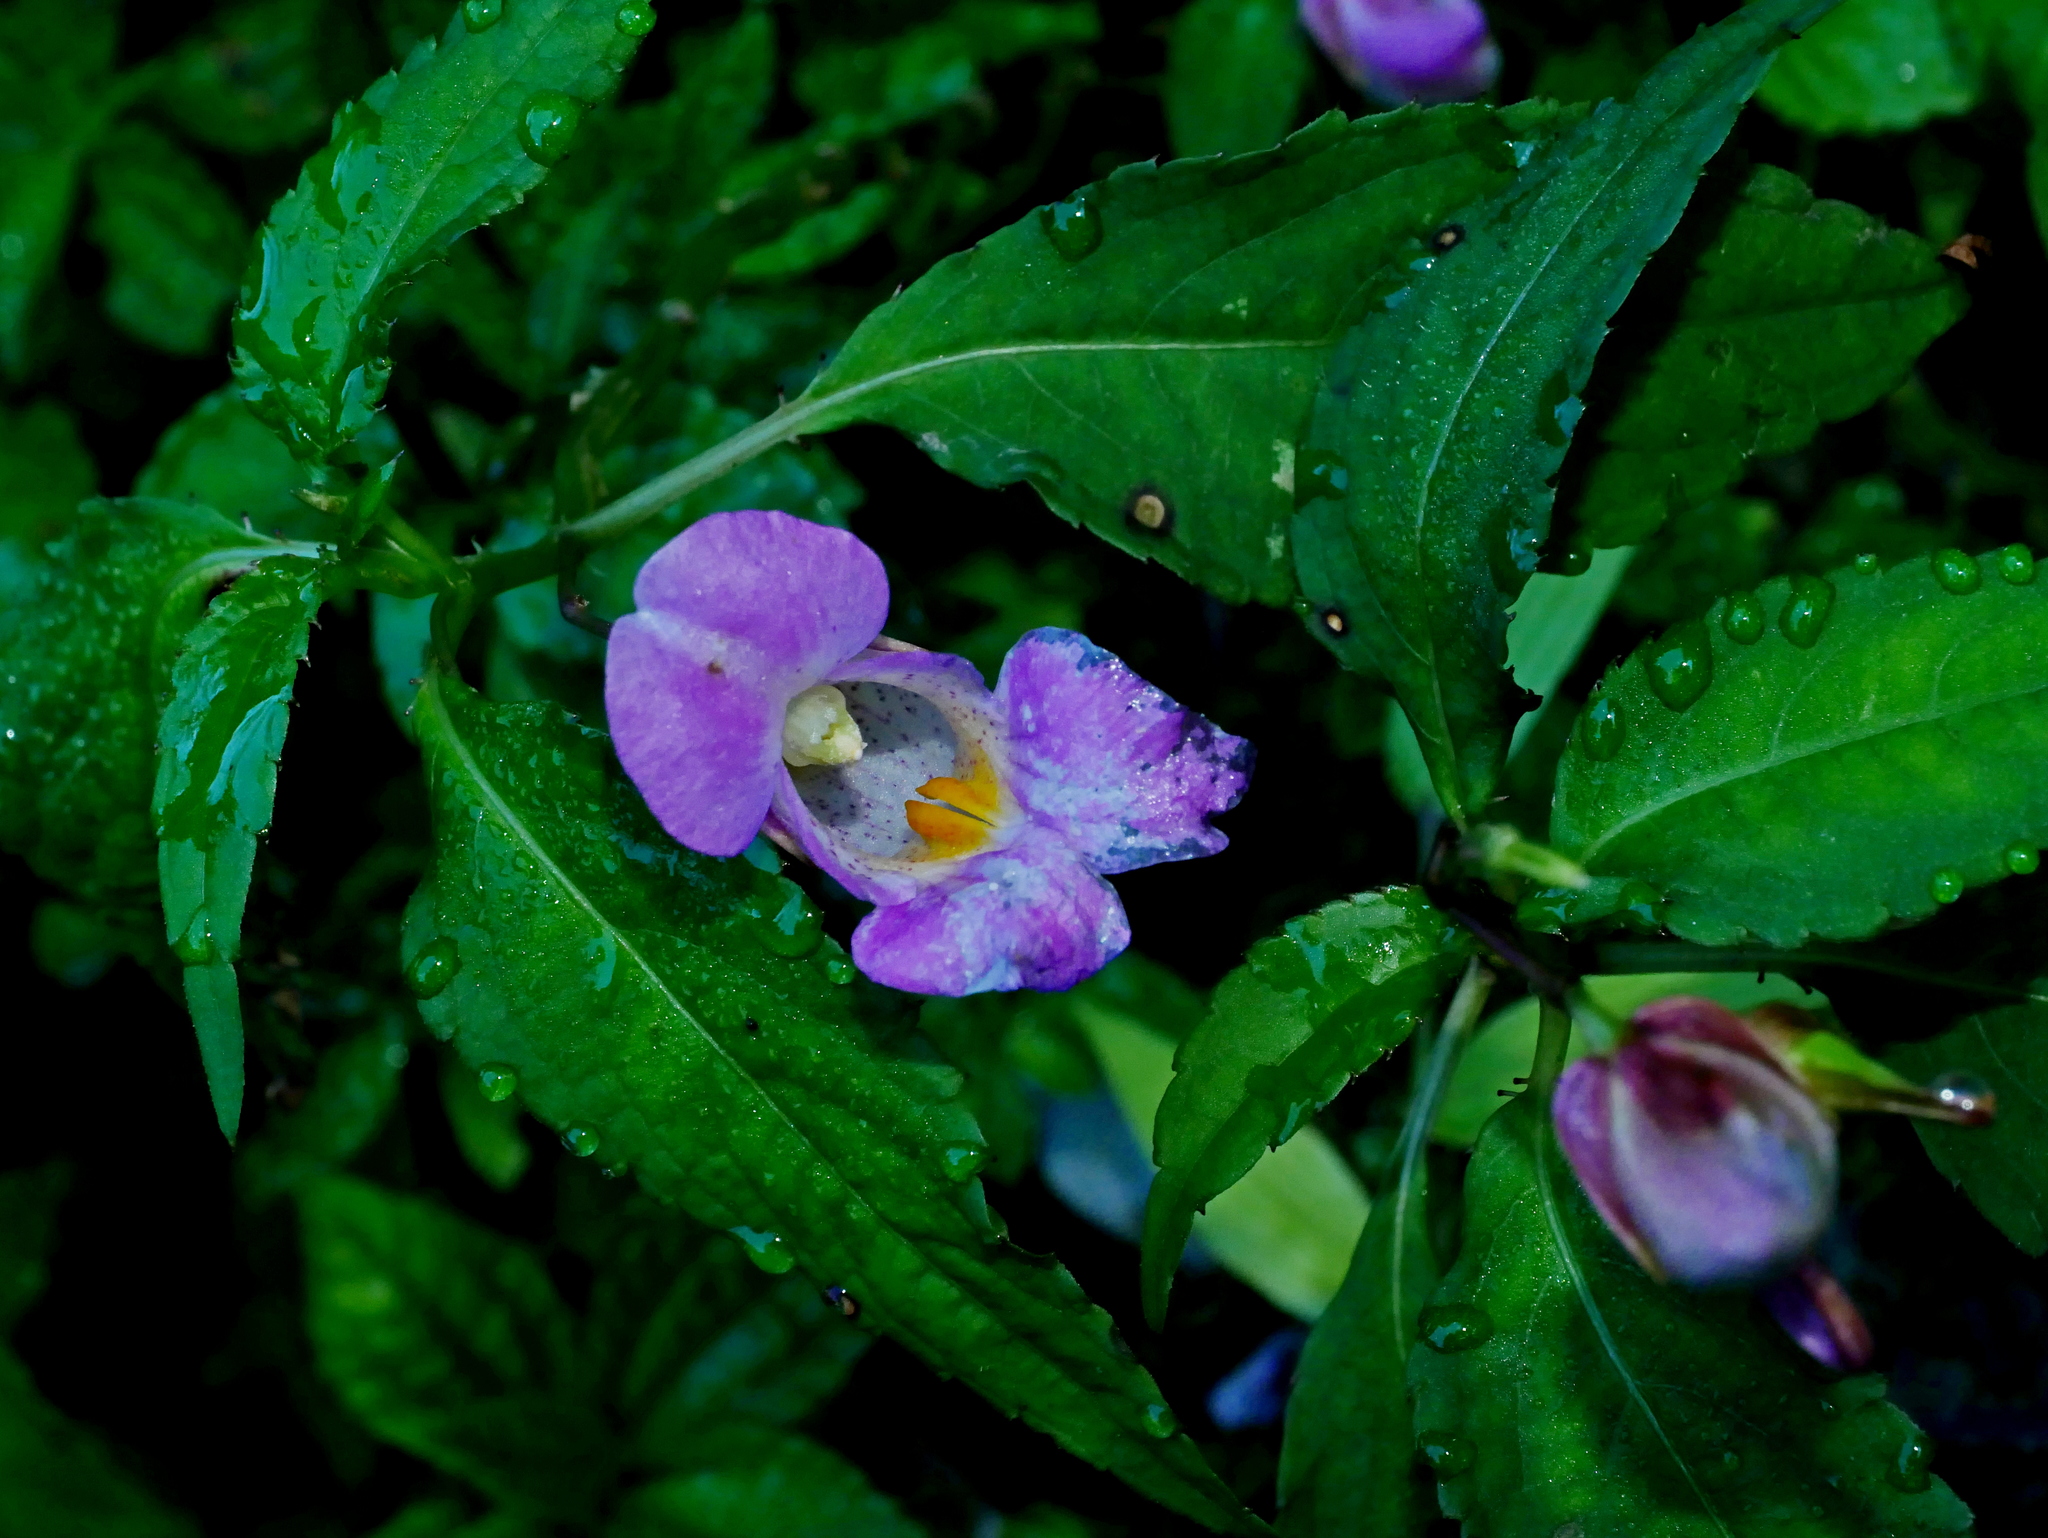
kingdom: Plantae
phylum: Tracheophyta
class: Magnoliopsida
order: Ericales
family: Balsaminaceae
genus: Impatiens
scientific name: Impatiens uniflora
